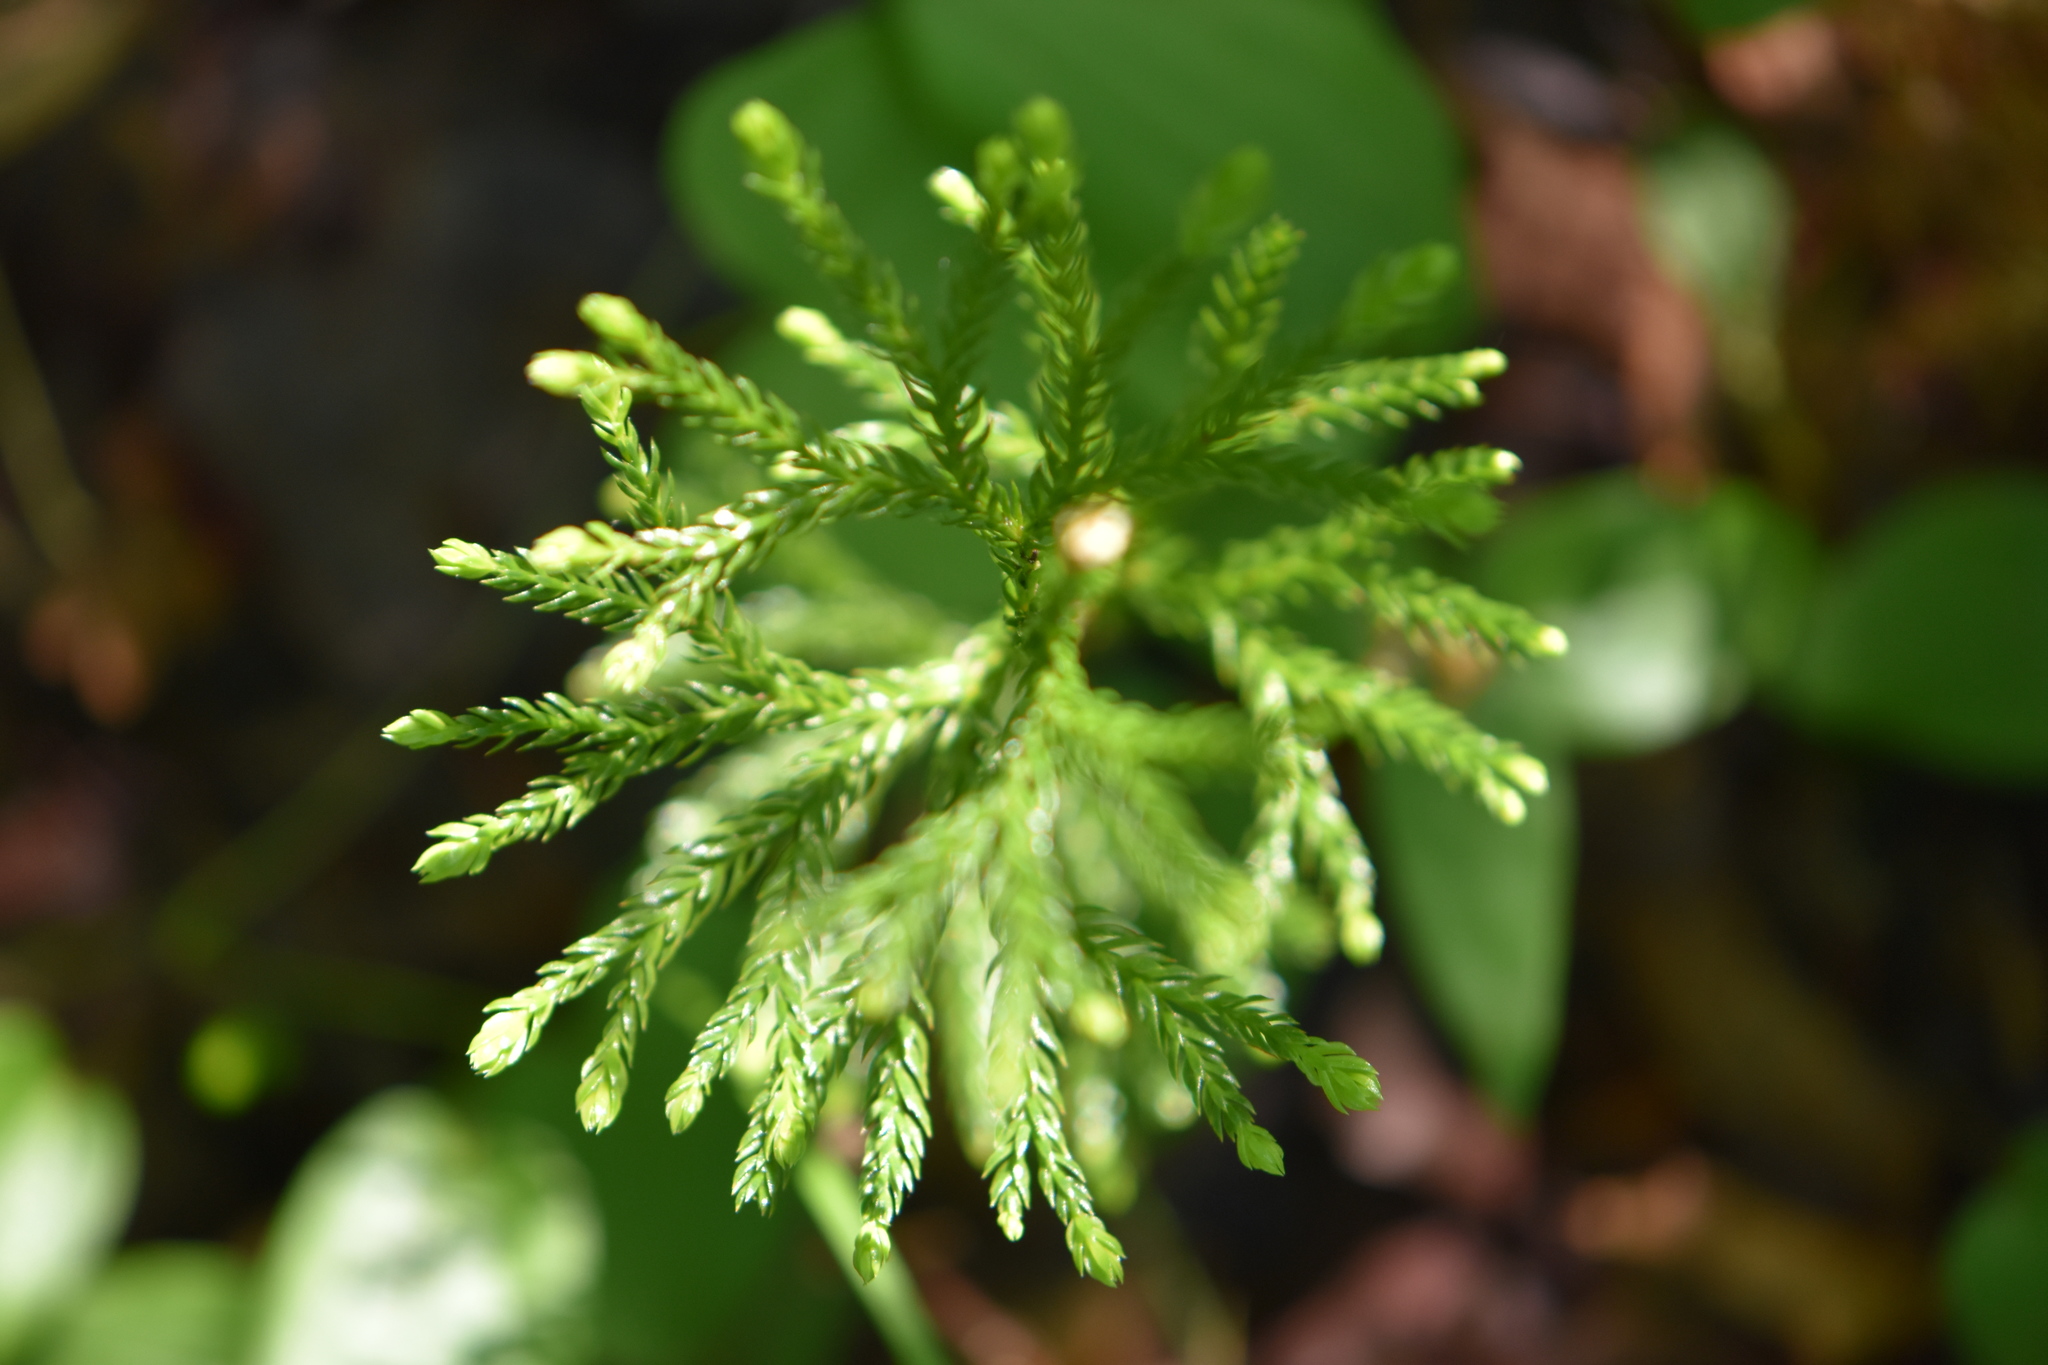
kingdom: Plantae
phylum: Tracheophyta
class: Lycopodiopsida
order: Lycopodiales
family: Lycopodiaceae
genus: Dendrolycopodium
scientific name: Dendrolycopodium obscurum
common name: Common ground-pine
